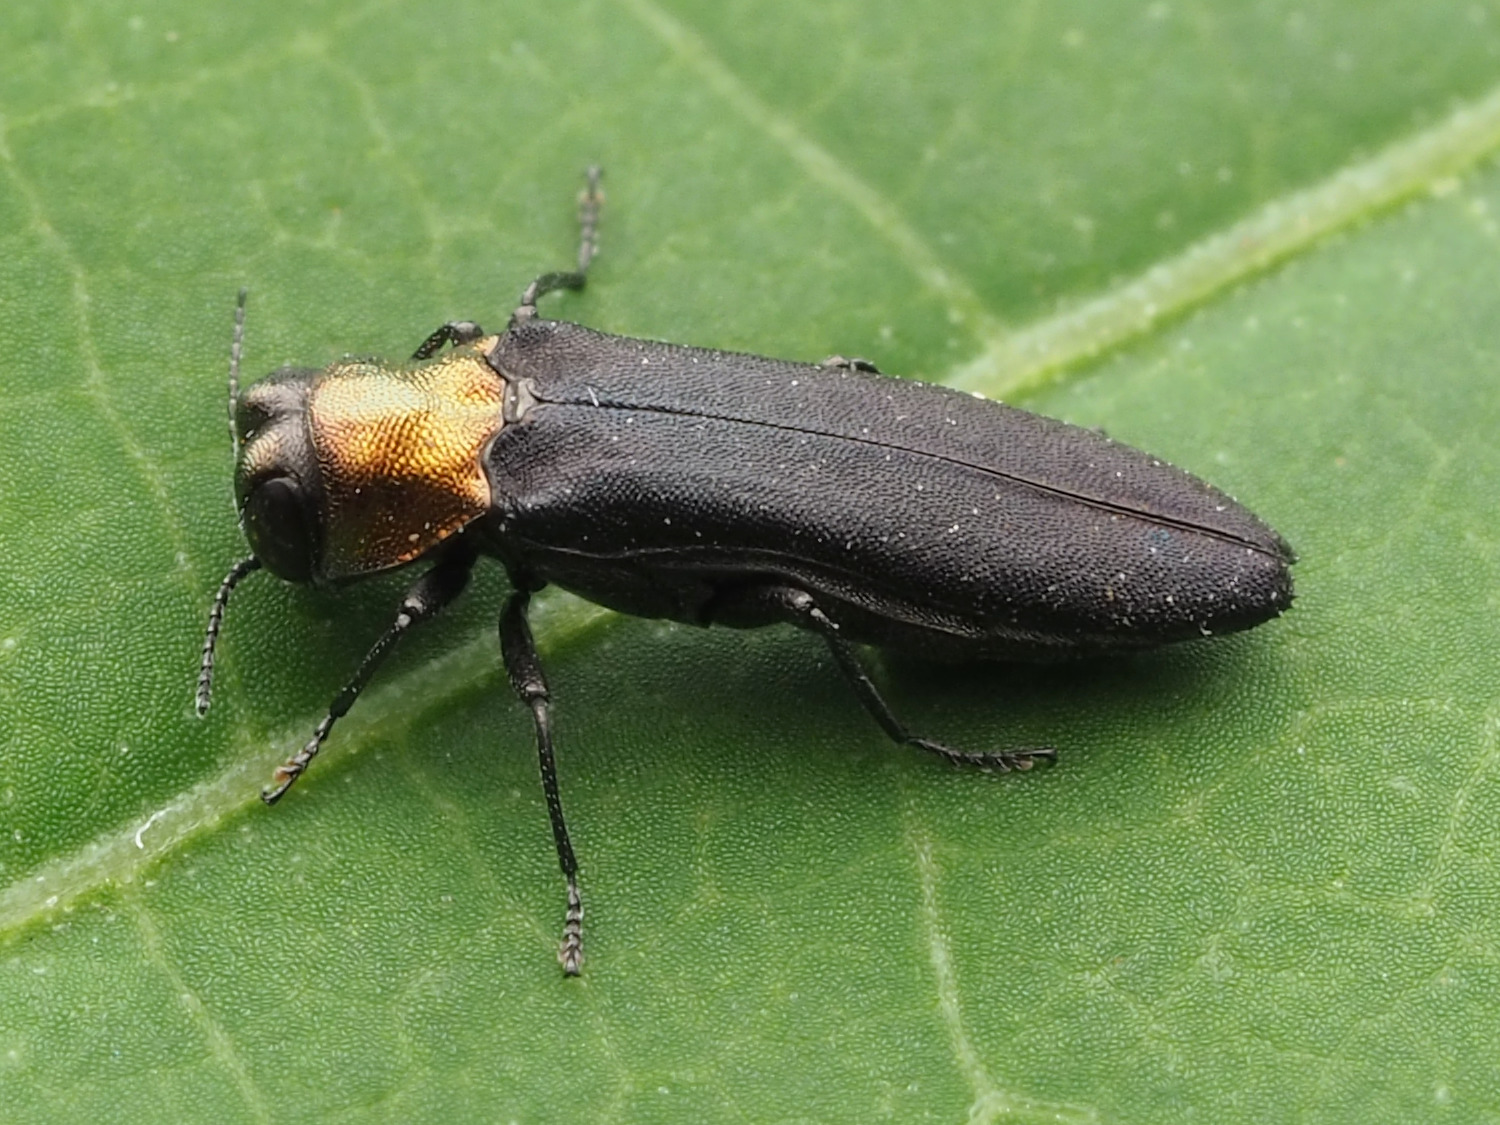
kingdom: Animalia
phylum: Arthropoda
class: Insecta
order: Coleoptera
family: Buprestidae
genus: Agrilus
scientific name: Agrilus ruficollis
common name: Red-necked cane borer beetle
